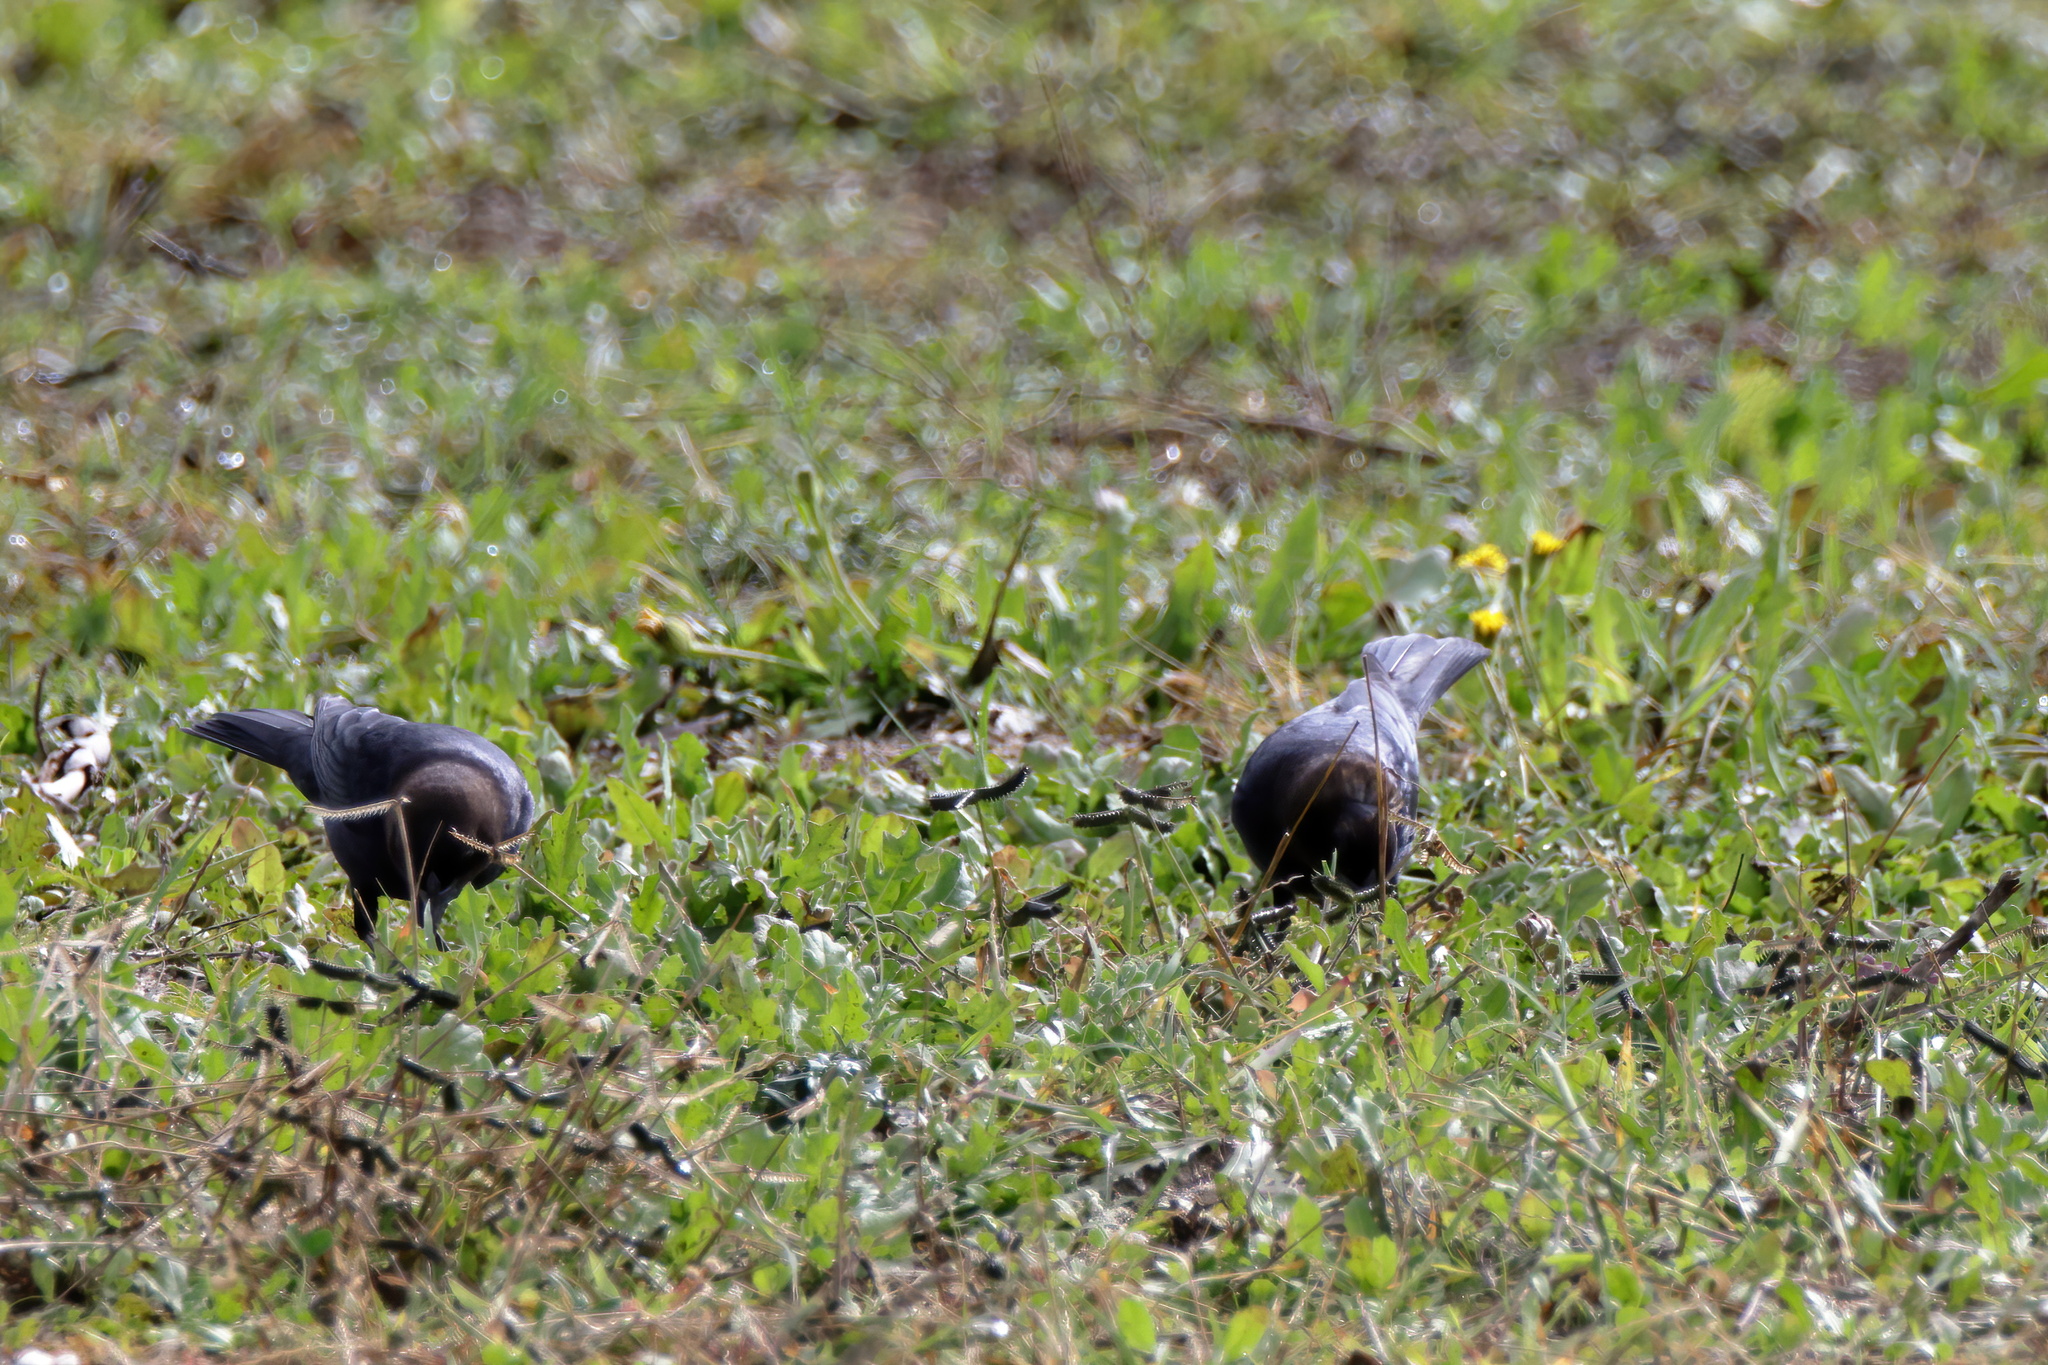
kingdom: Animalia
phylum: Chordata
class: Aves
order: Passeriformes
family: Icteridae
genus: Molothrus
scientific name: Molothrus ater
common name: Brown-headed cowbird
